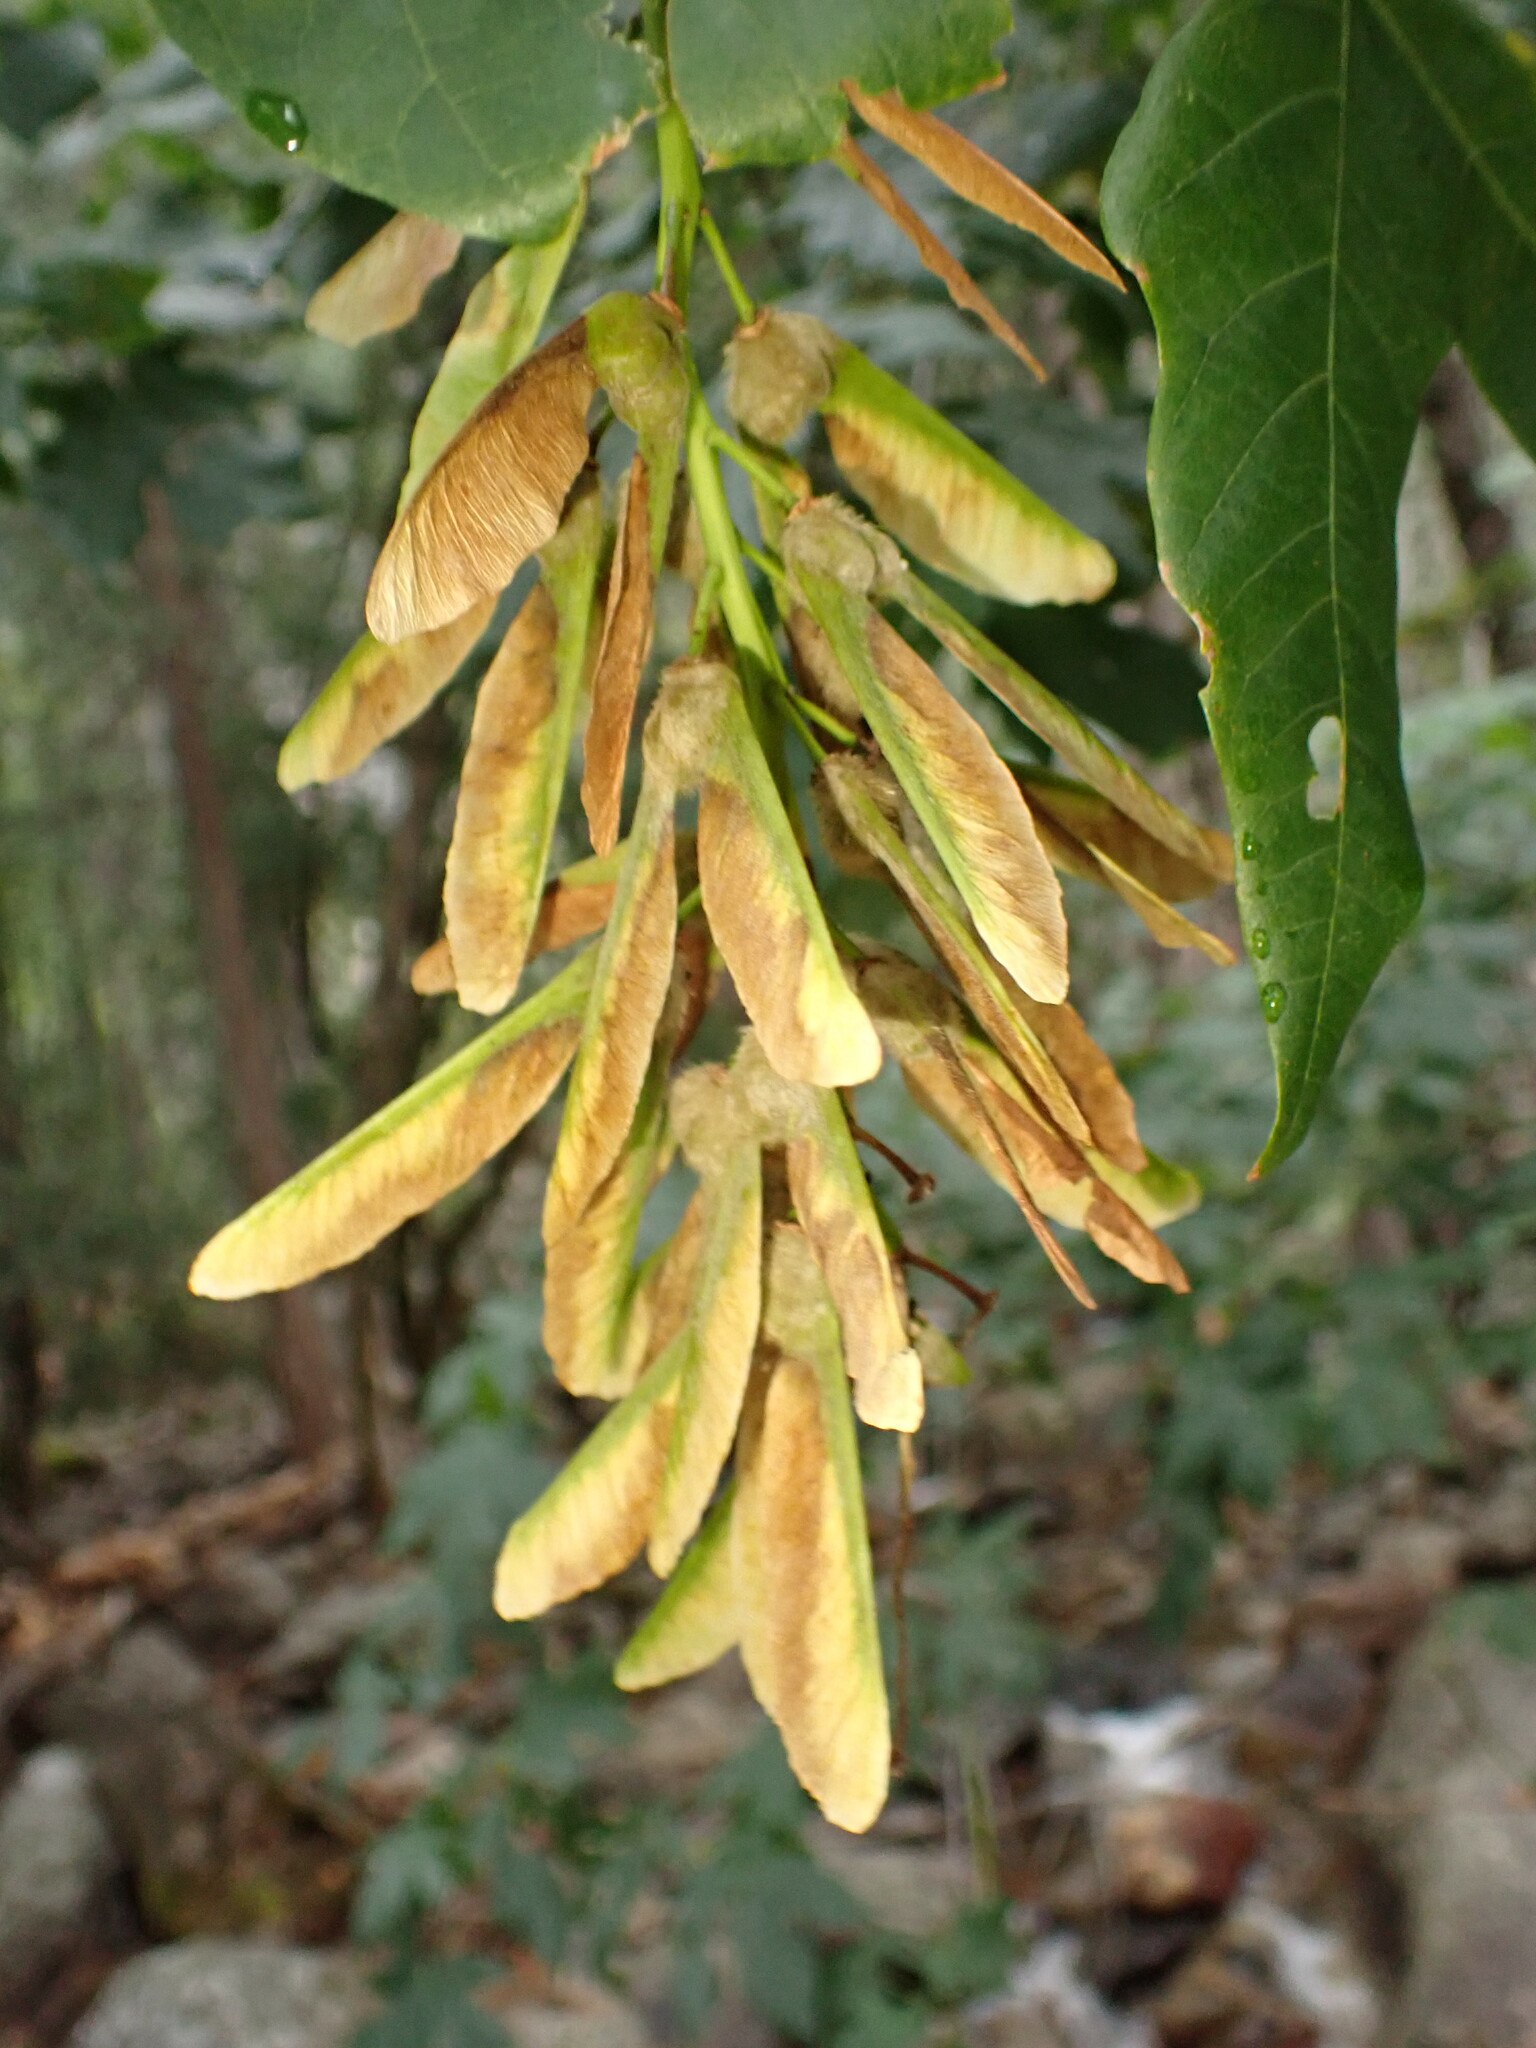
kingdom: Plantae
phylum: Tracheophyta
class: Magnoliopsida
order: Sapindales
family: Sapindaceae
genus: Acer
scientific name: Acer macrophyllum
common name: Oregon maple
